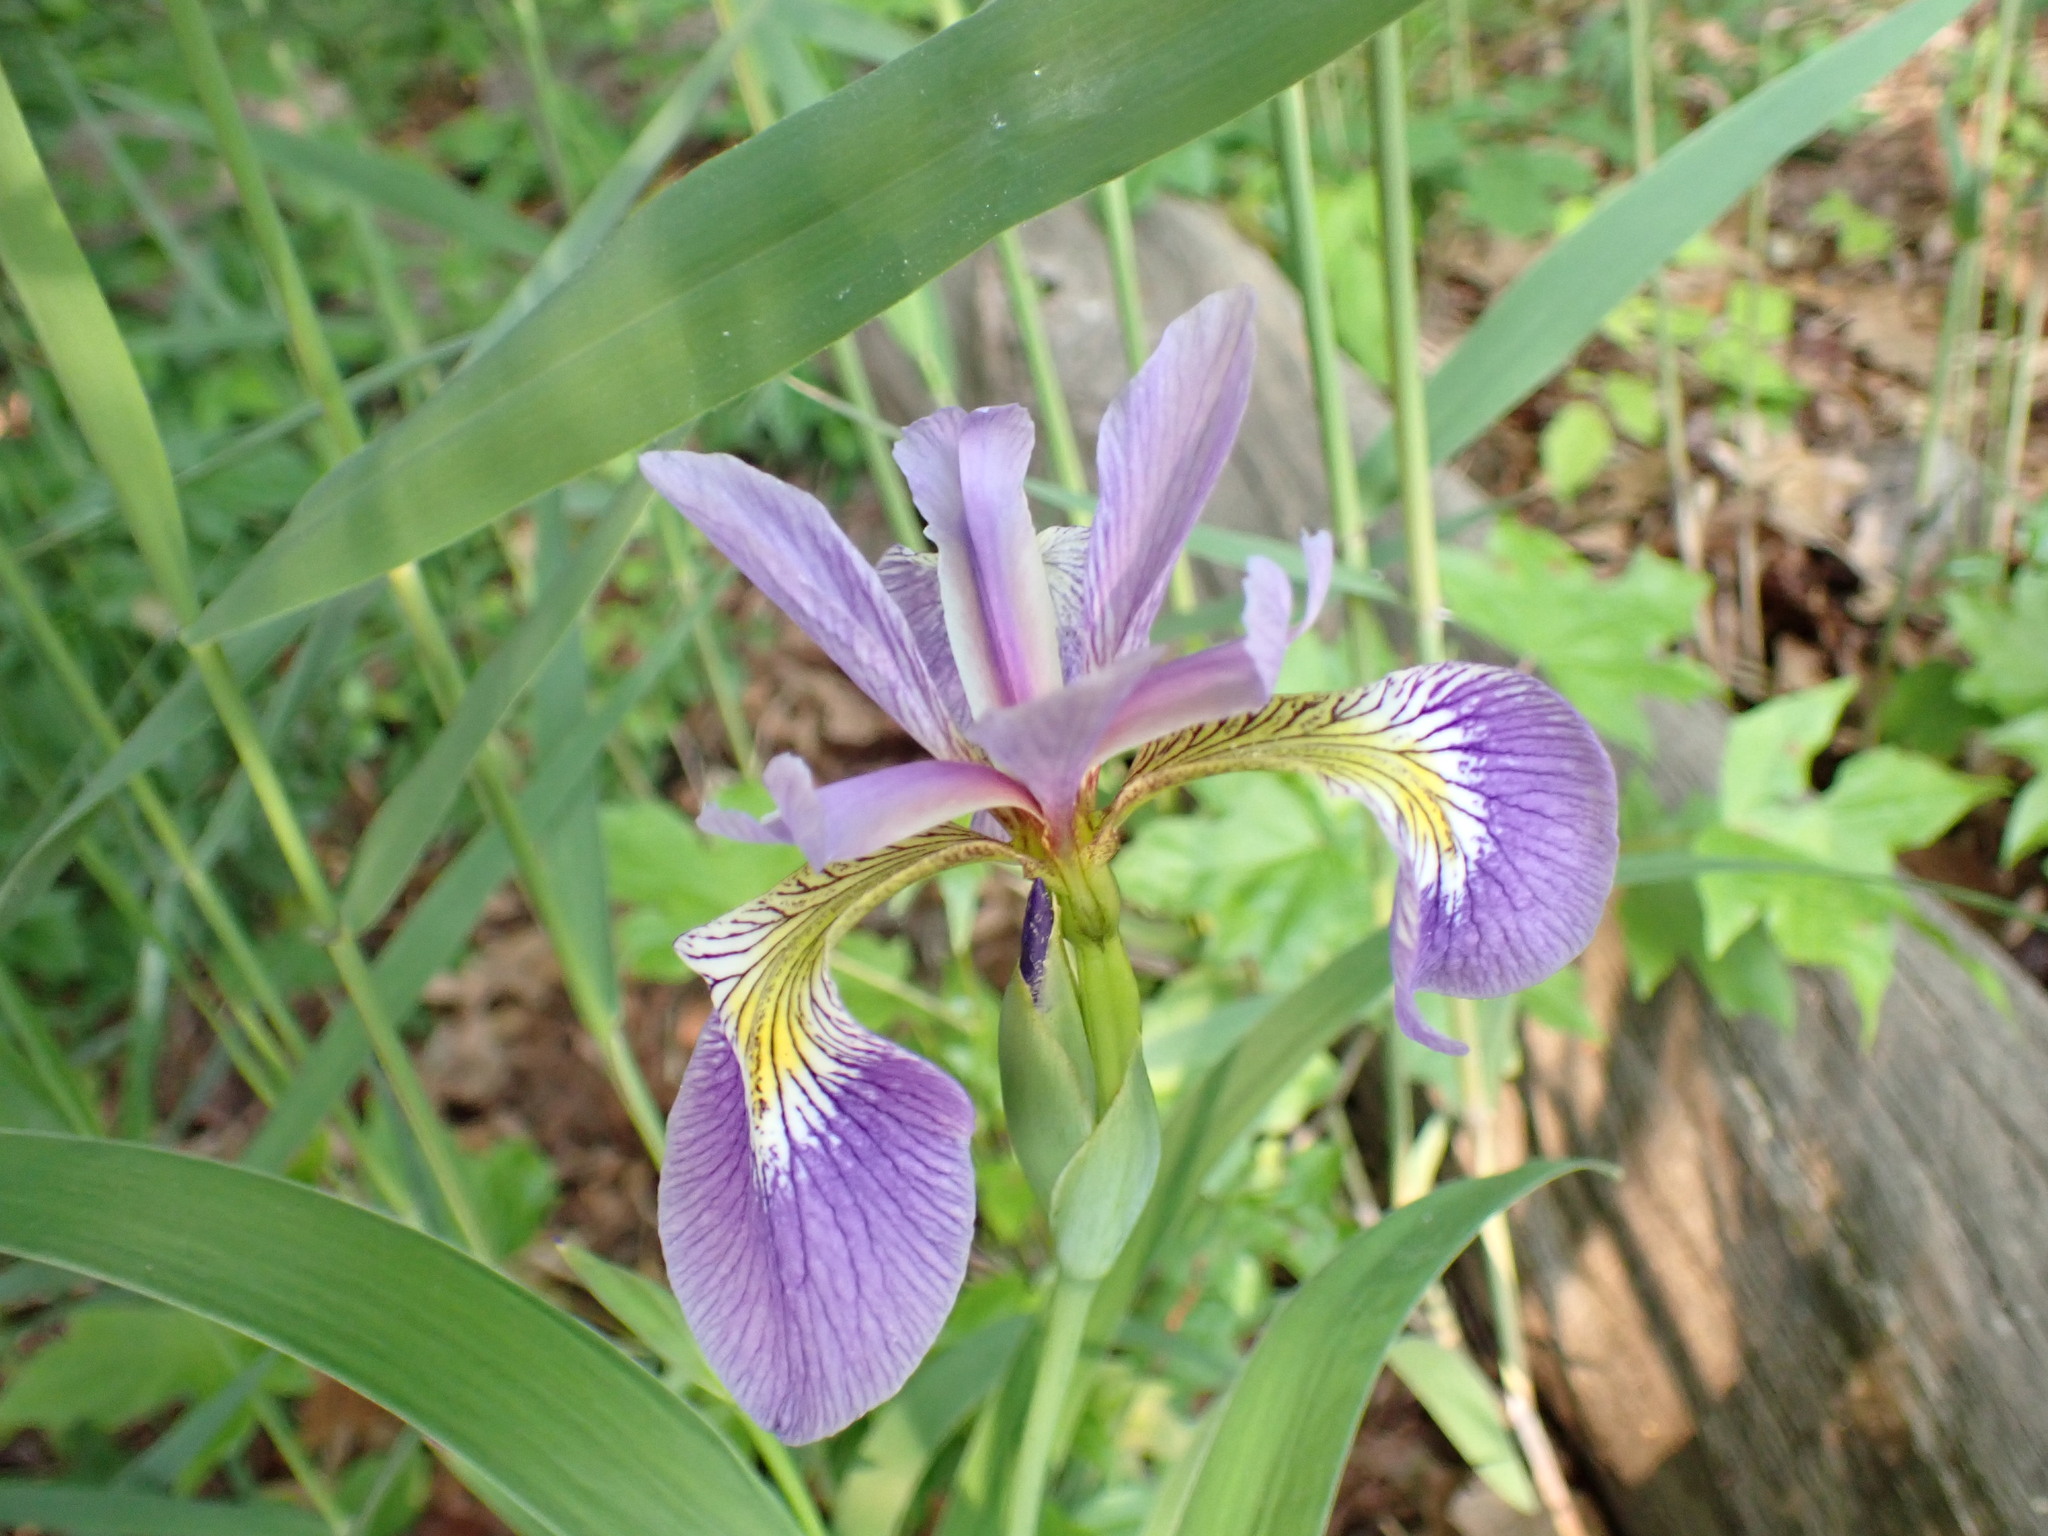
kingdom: Plantae
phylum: Tracheophyta
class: Liliopsida
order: Asparagales
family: Iridaceae
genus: Iris
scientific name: Iris versicolor
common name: Purple iris
